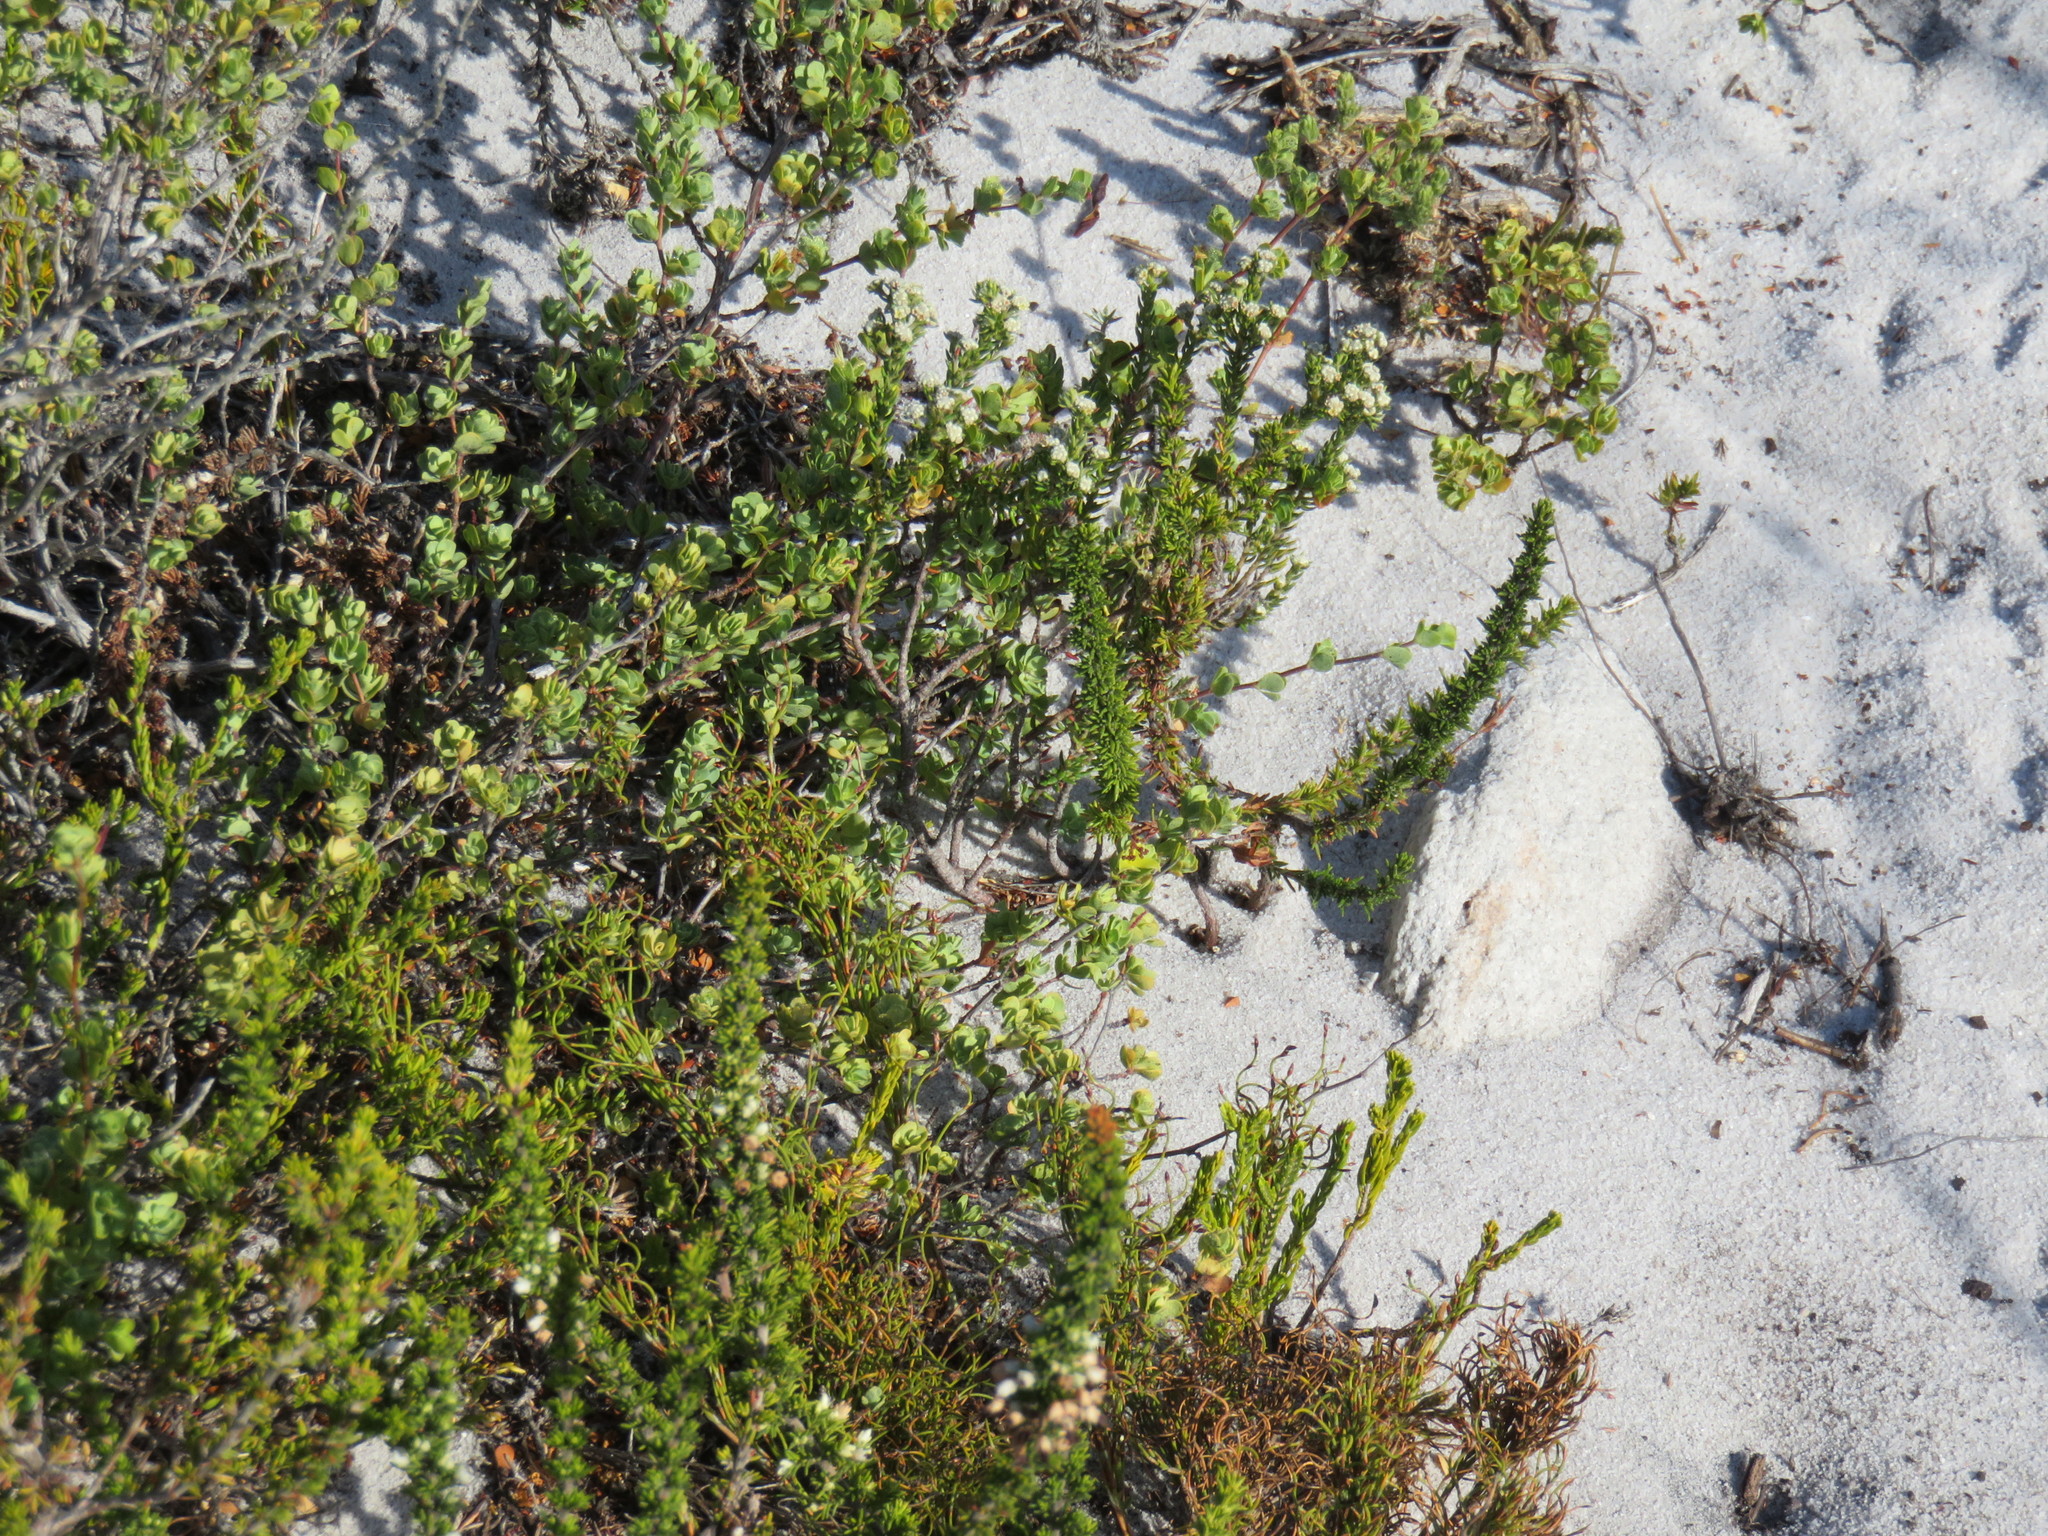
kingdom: Plantae
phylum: Tracheophyta
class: Magnoliopsida
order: Rosales
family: Rosaceae
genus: Cliffortia
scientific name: Cliffortia obcordata
